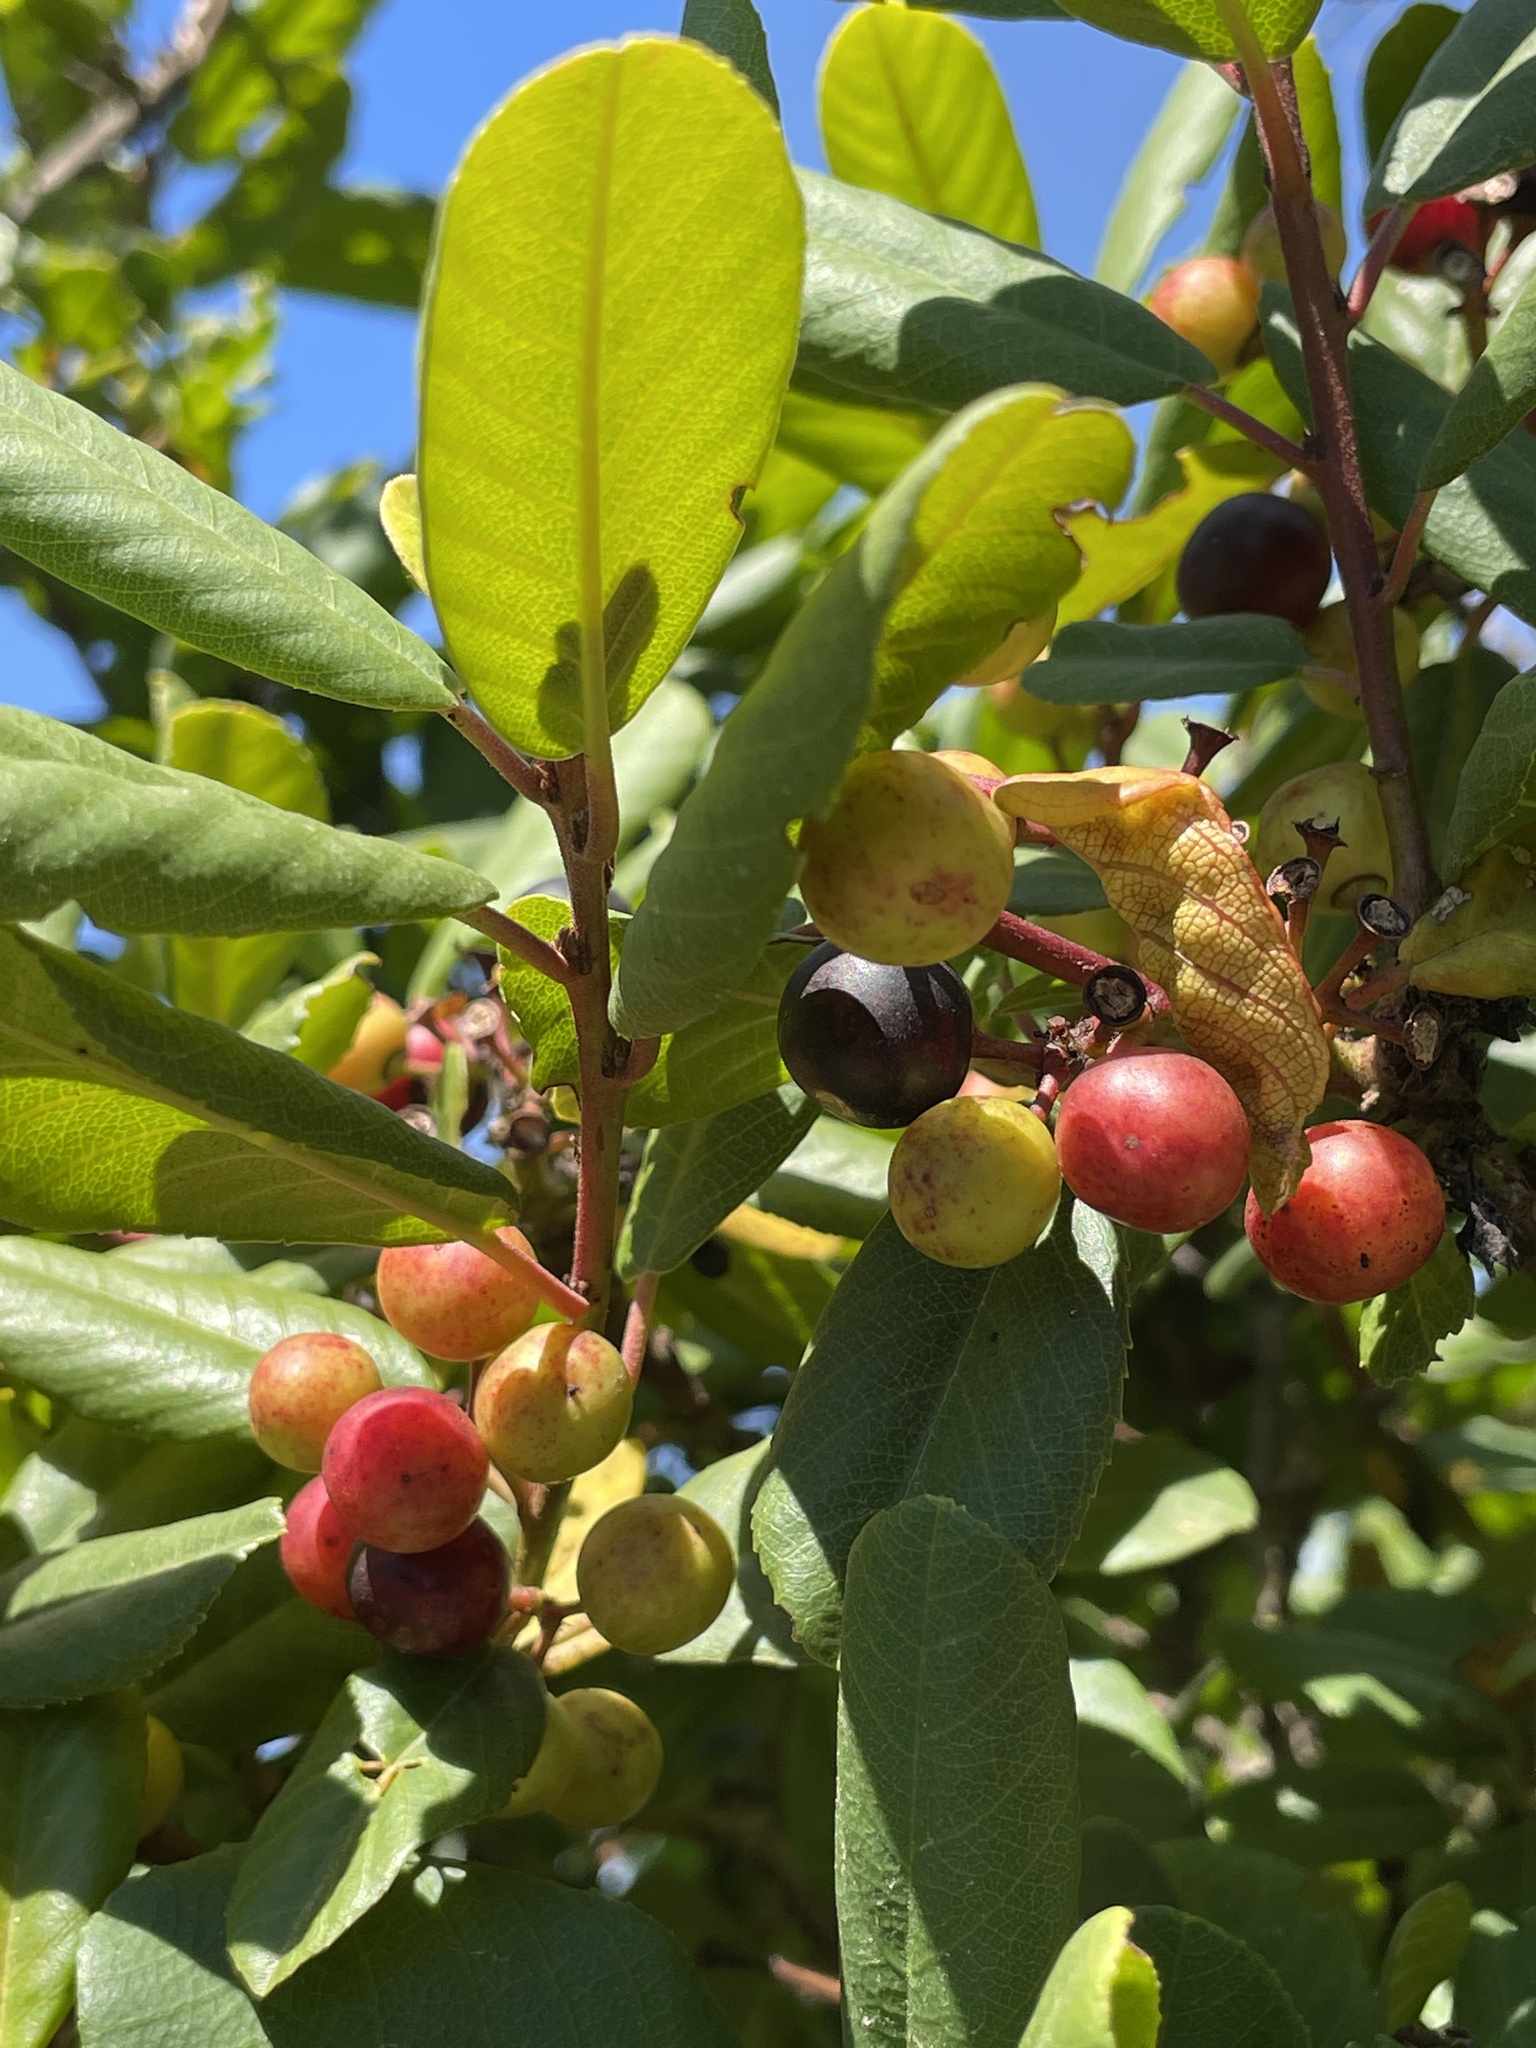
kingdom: Plantae
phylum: Tracheophyta
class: Magnoliopsida
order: Rosales
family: Rhamnaceae
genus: Frangula
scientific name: Frangula californica
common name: California buckthorn
